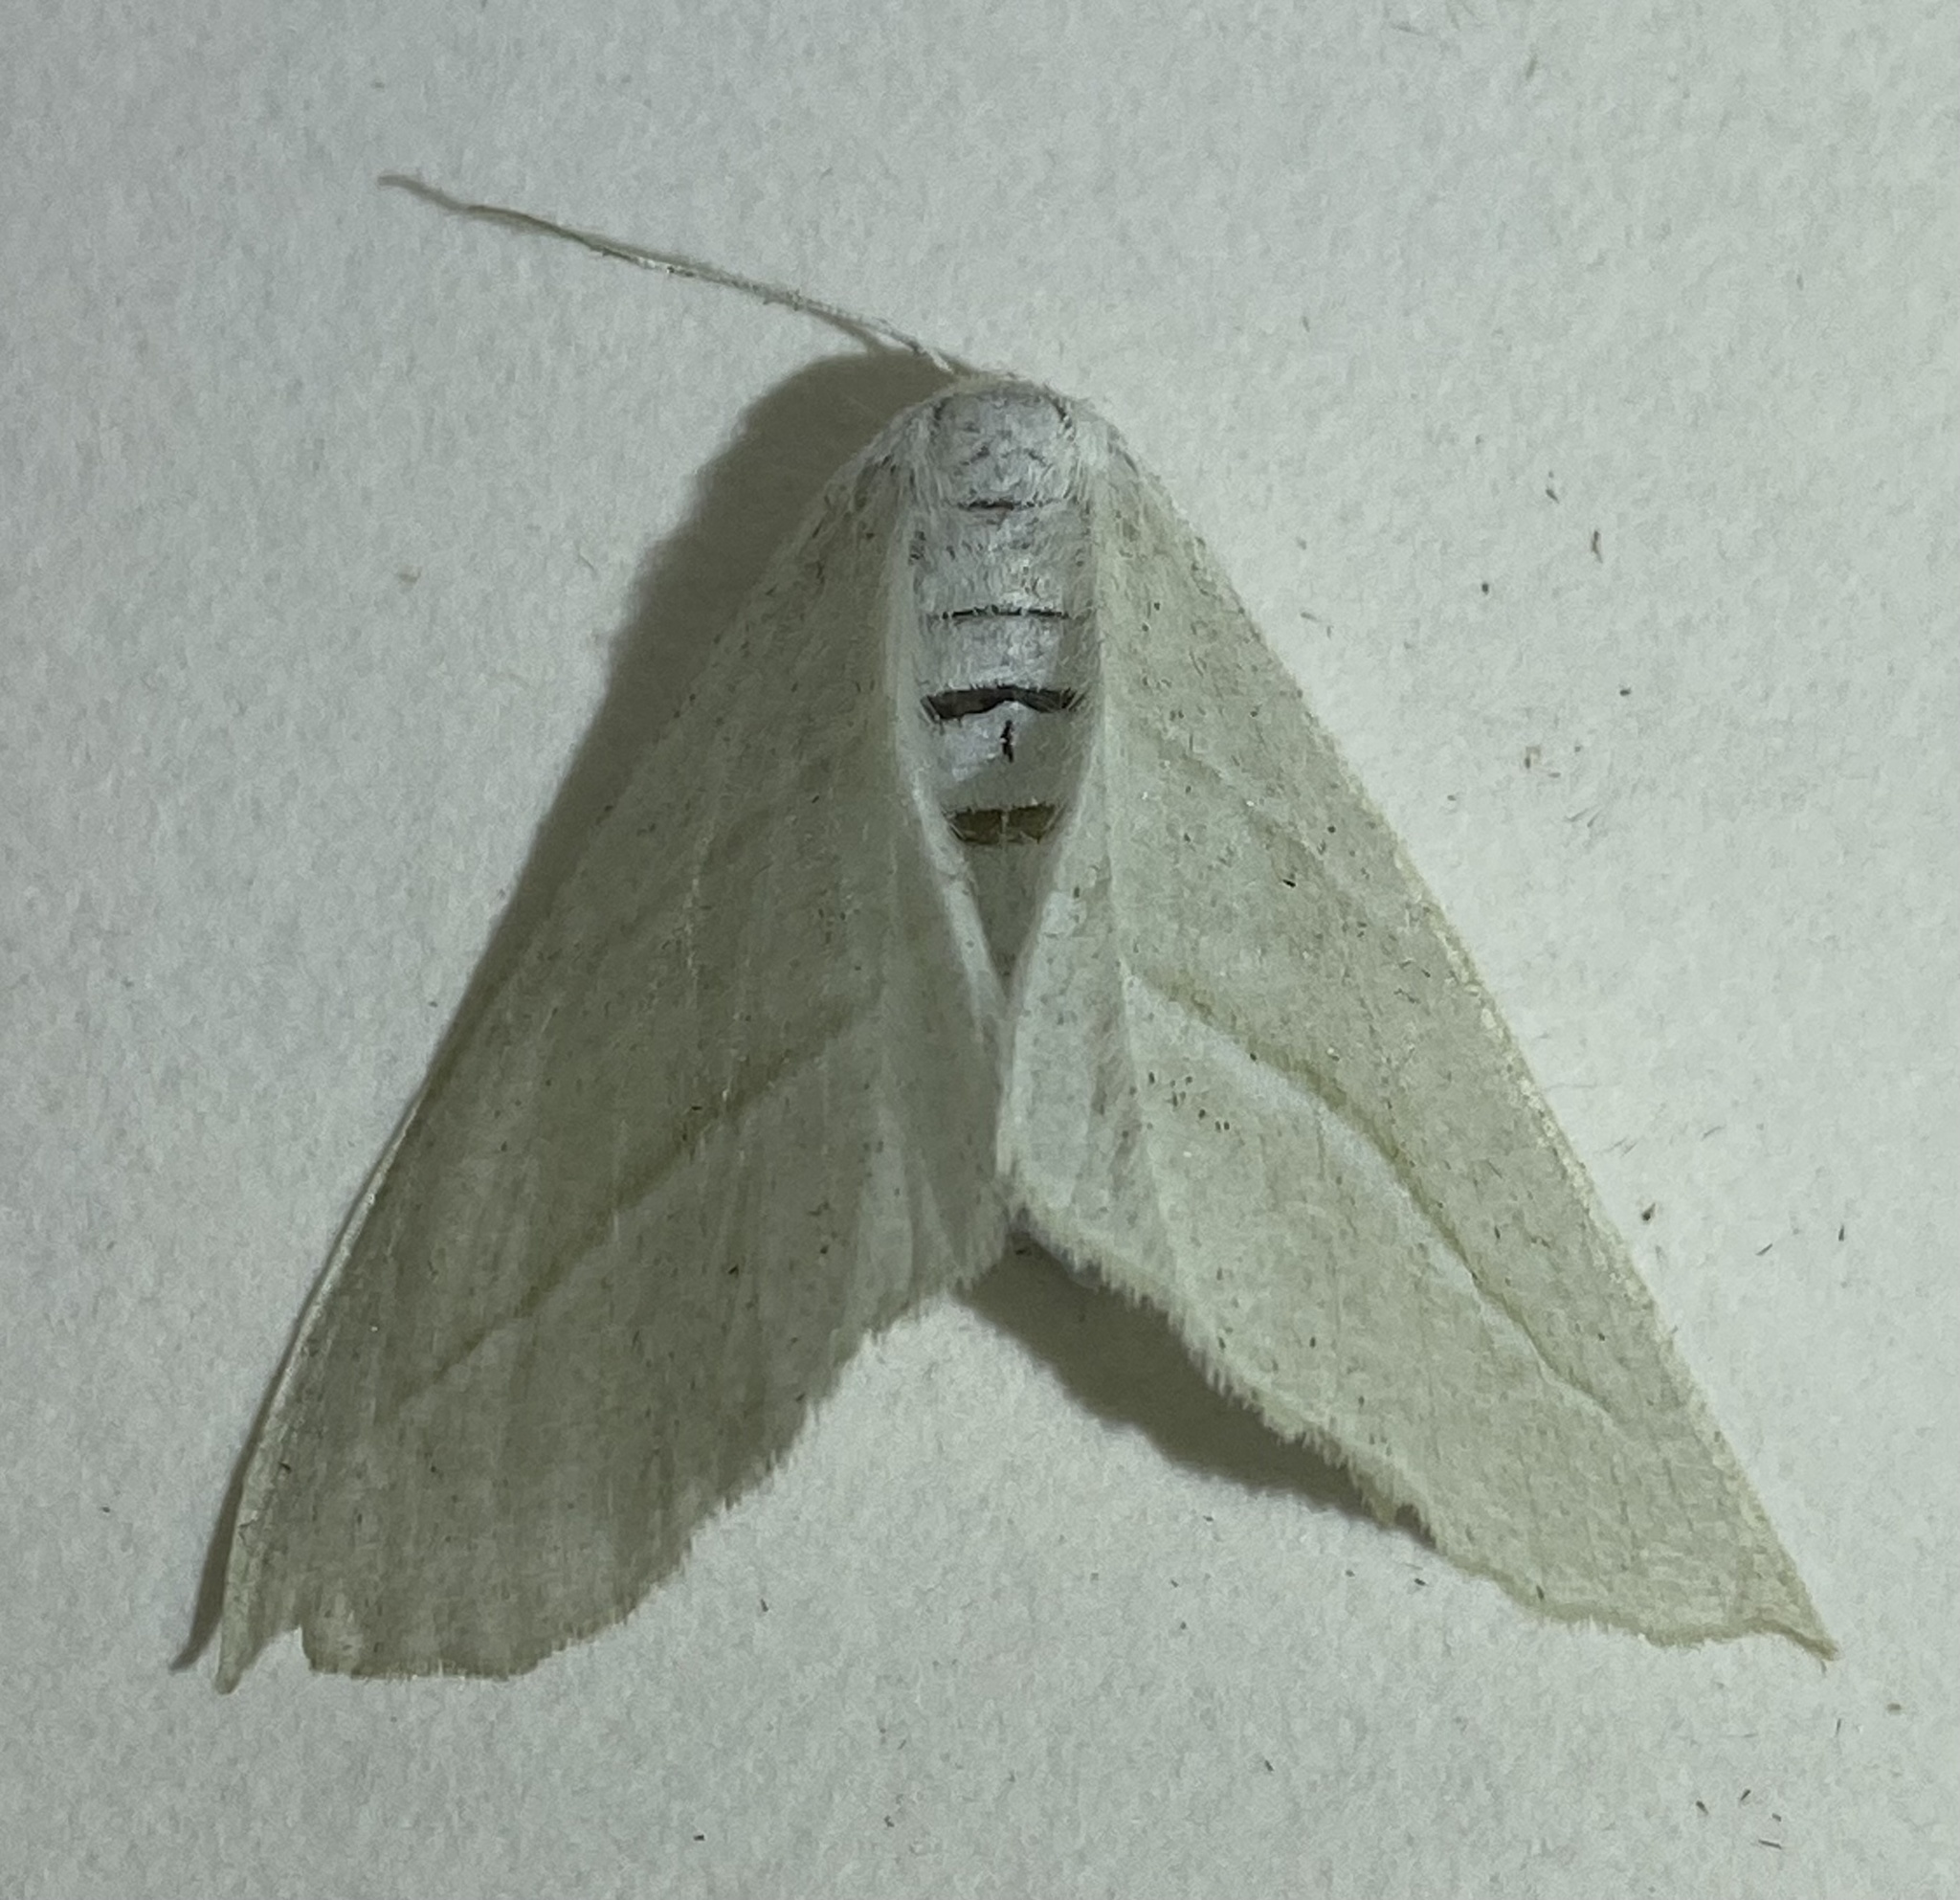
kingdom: Animalia
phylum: Arthropoda
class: Insecta
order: Lepidoptera
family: Geometridae
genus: Campaea
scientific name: Campaea perlata
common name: Fringed looper
